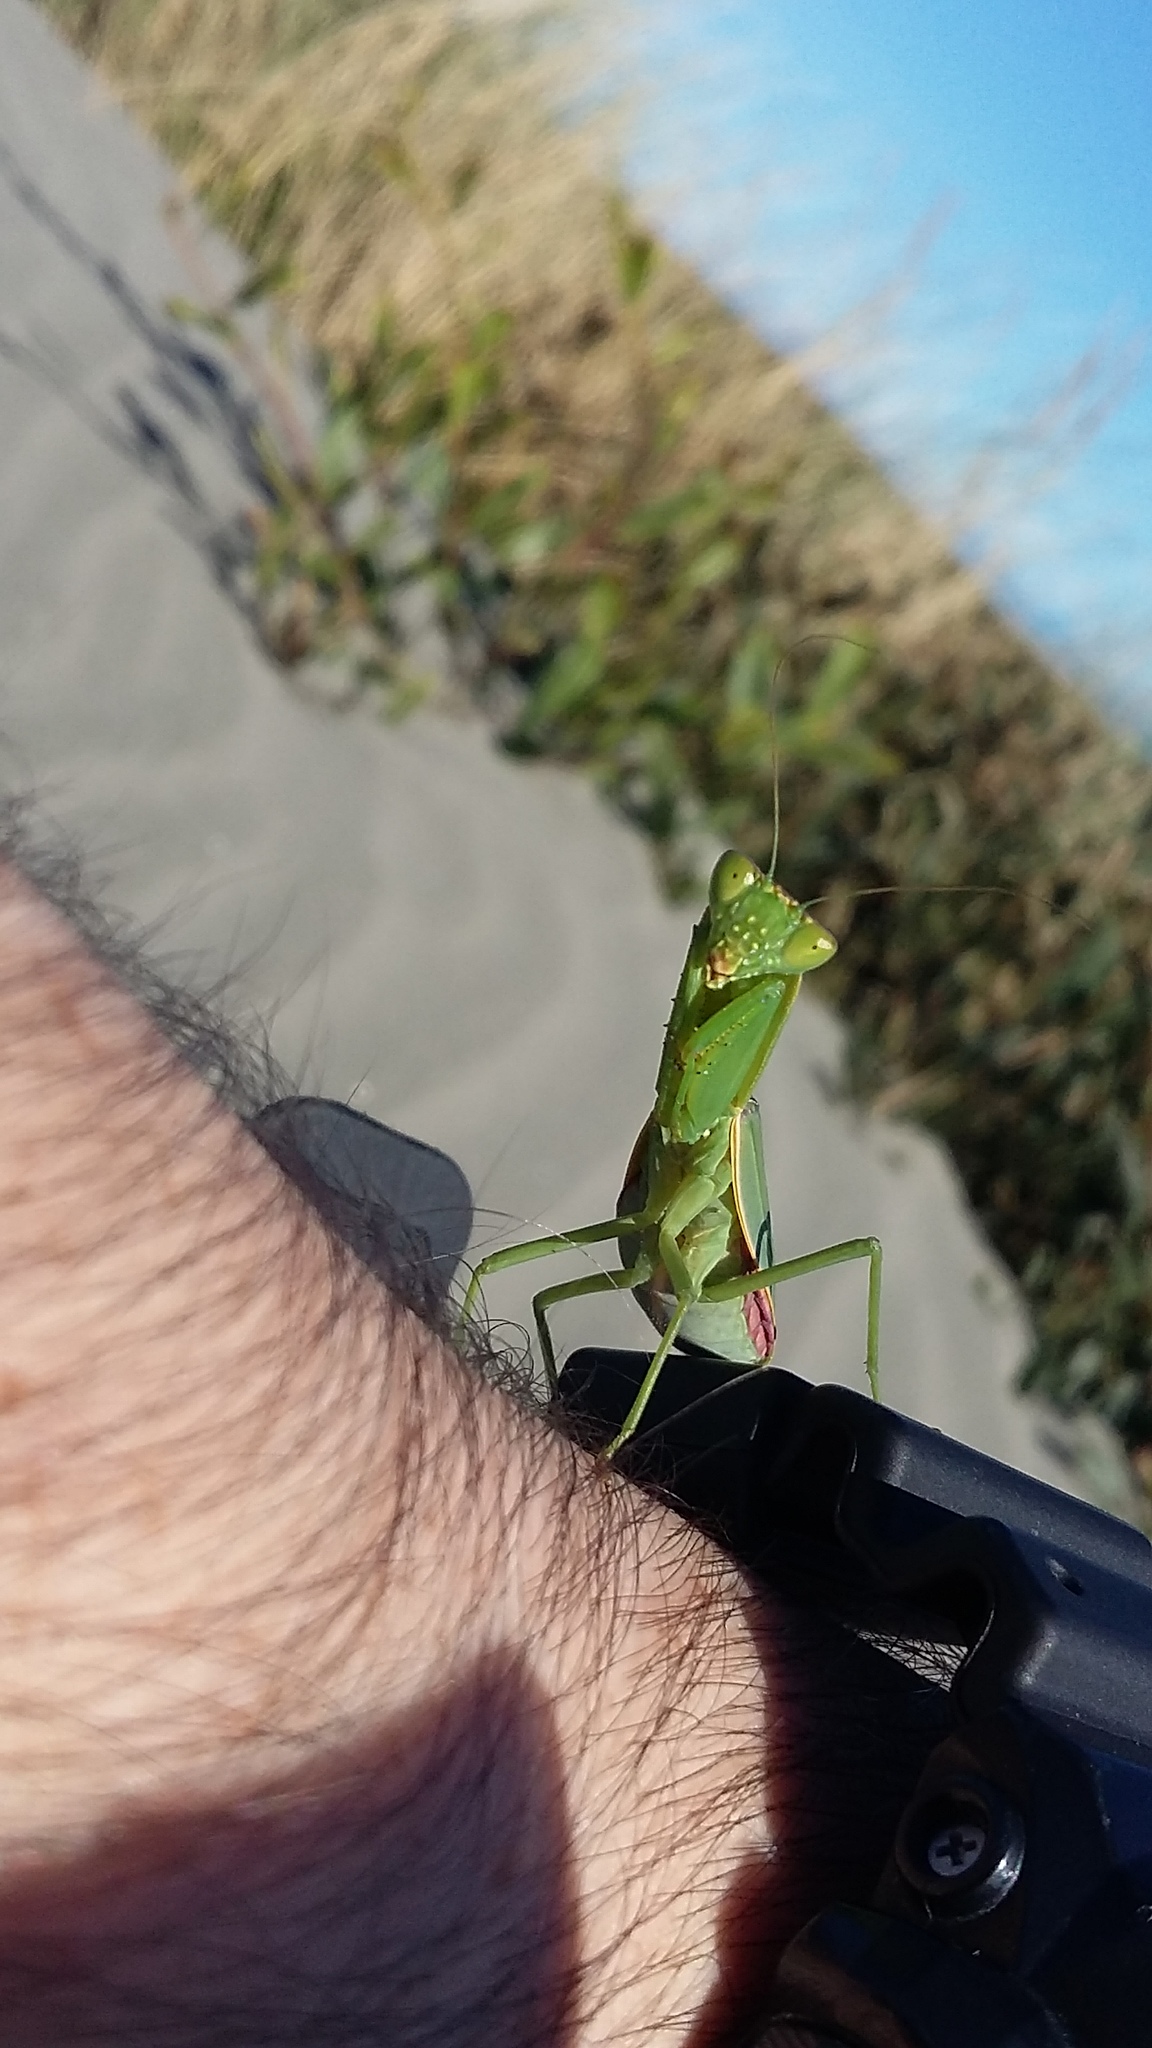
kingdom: Animalia
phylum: Arthropoda
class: Insecta
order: Mantodea
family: Mantidae
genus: Orthodera
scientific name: Orthodera novaezealandiae
